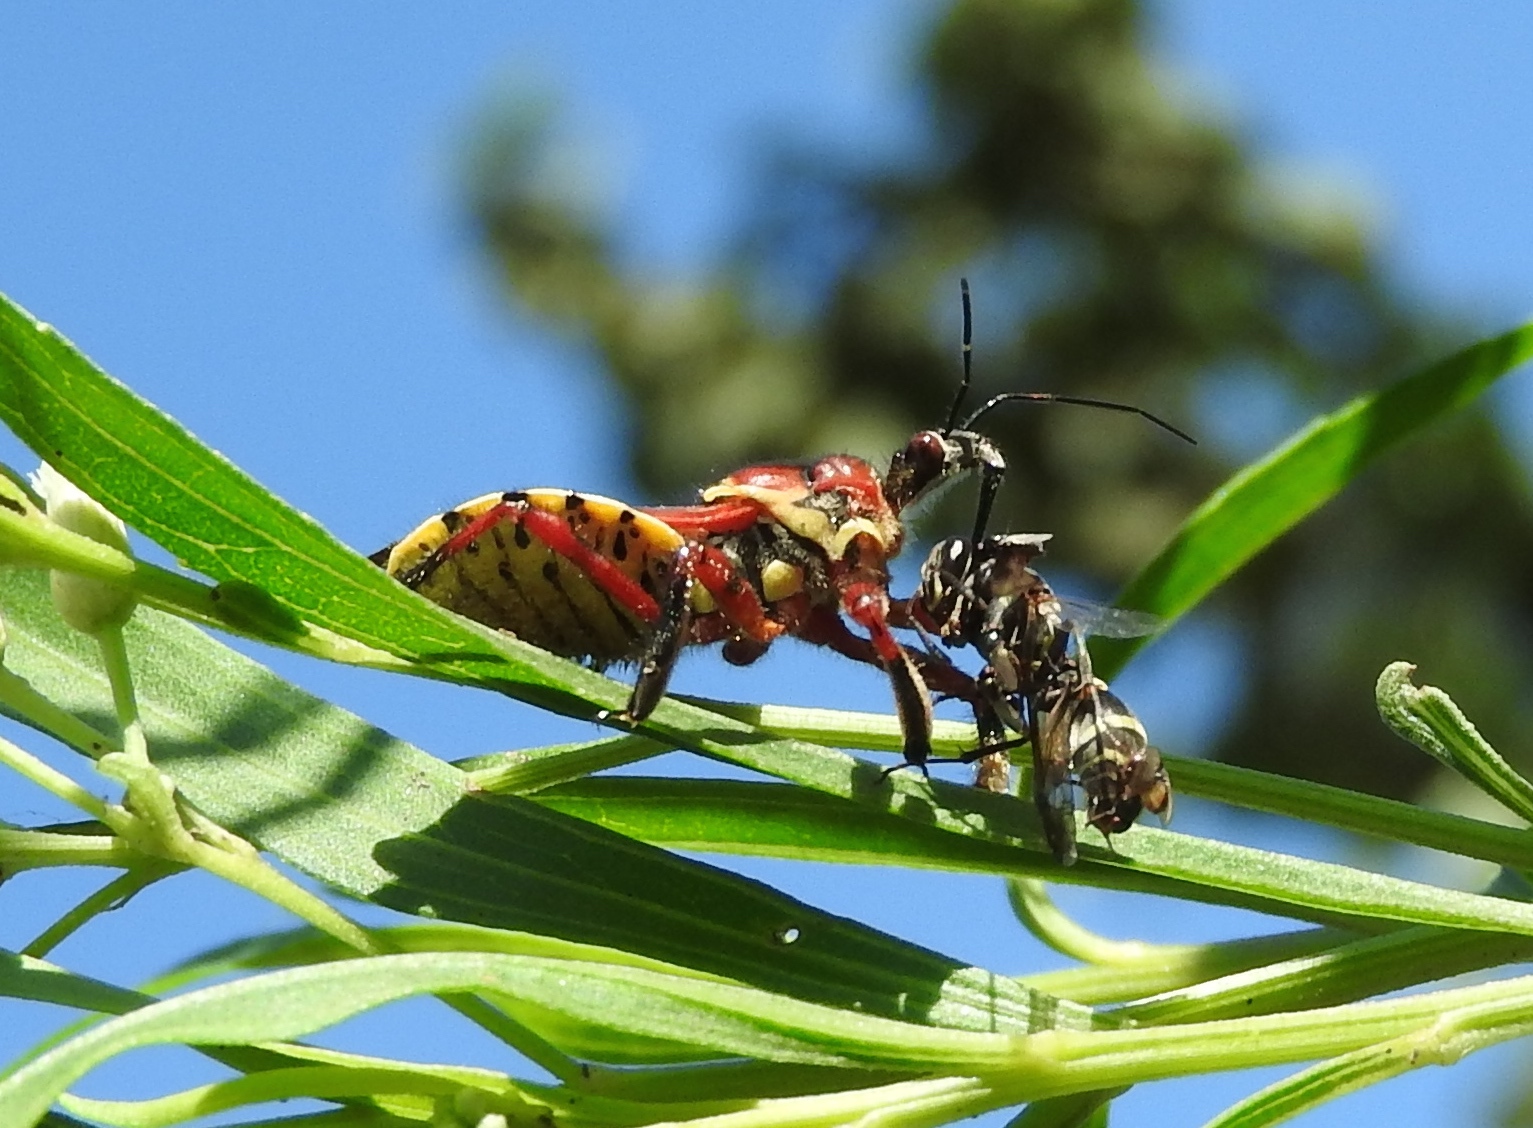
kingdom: Animalia
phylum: Arthropoda
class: Insecta
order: Hemiptera
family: Reduviidae
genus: Apiomerus
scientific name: Apiomerus flaviventris
